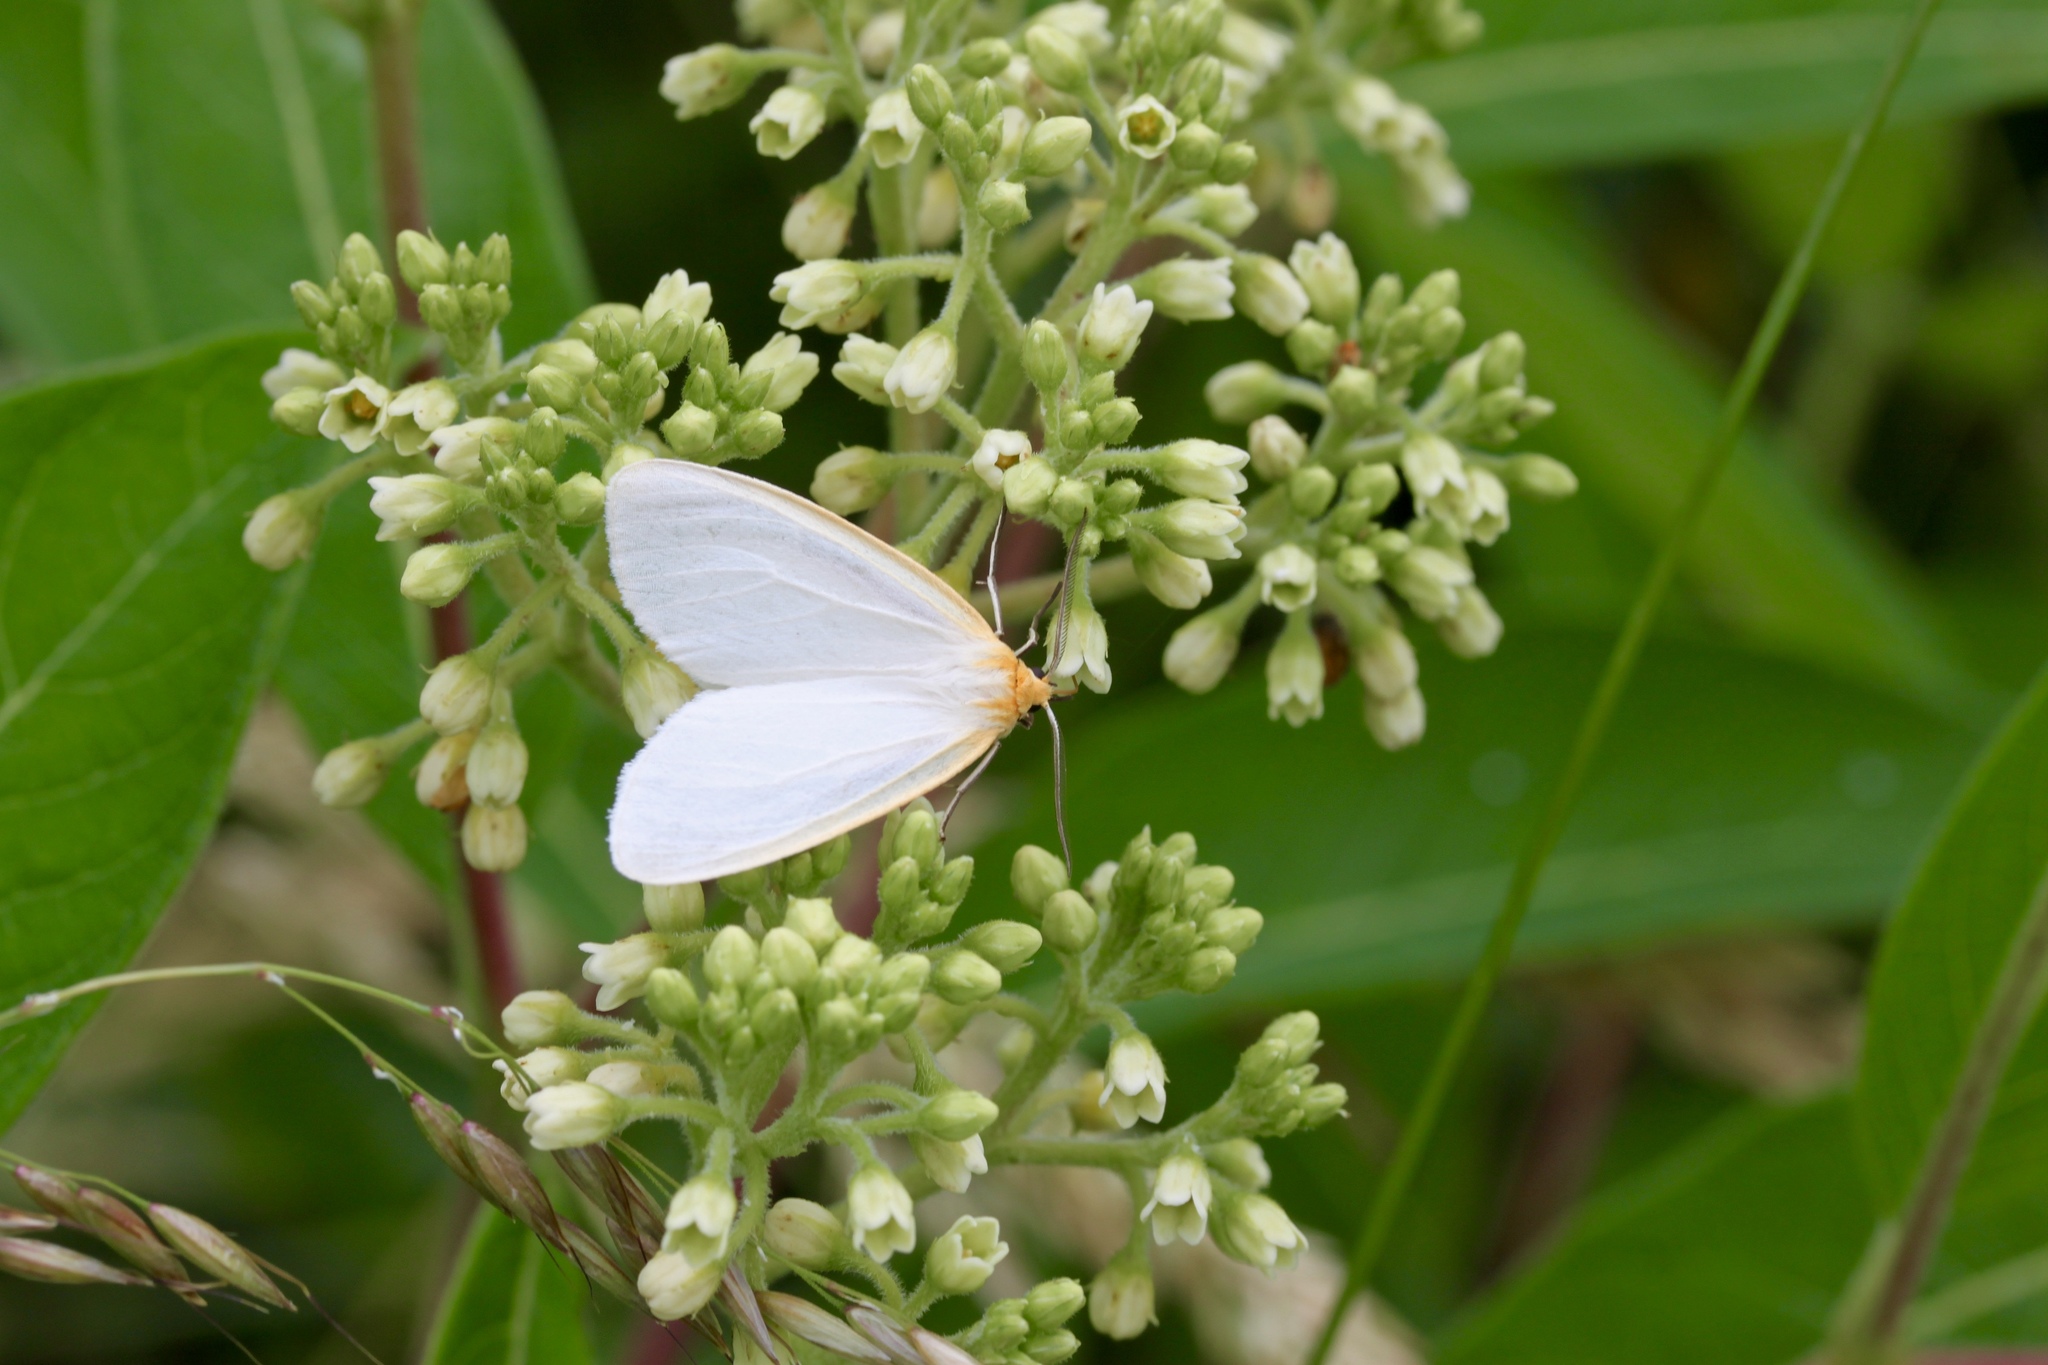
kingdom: Animalia
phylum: Arthropoda
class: Insecta
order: Lepidoptera
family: Erebidae
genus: Cycnia
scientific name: Cycnia tenera
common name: Delicate cycnia moth
